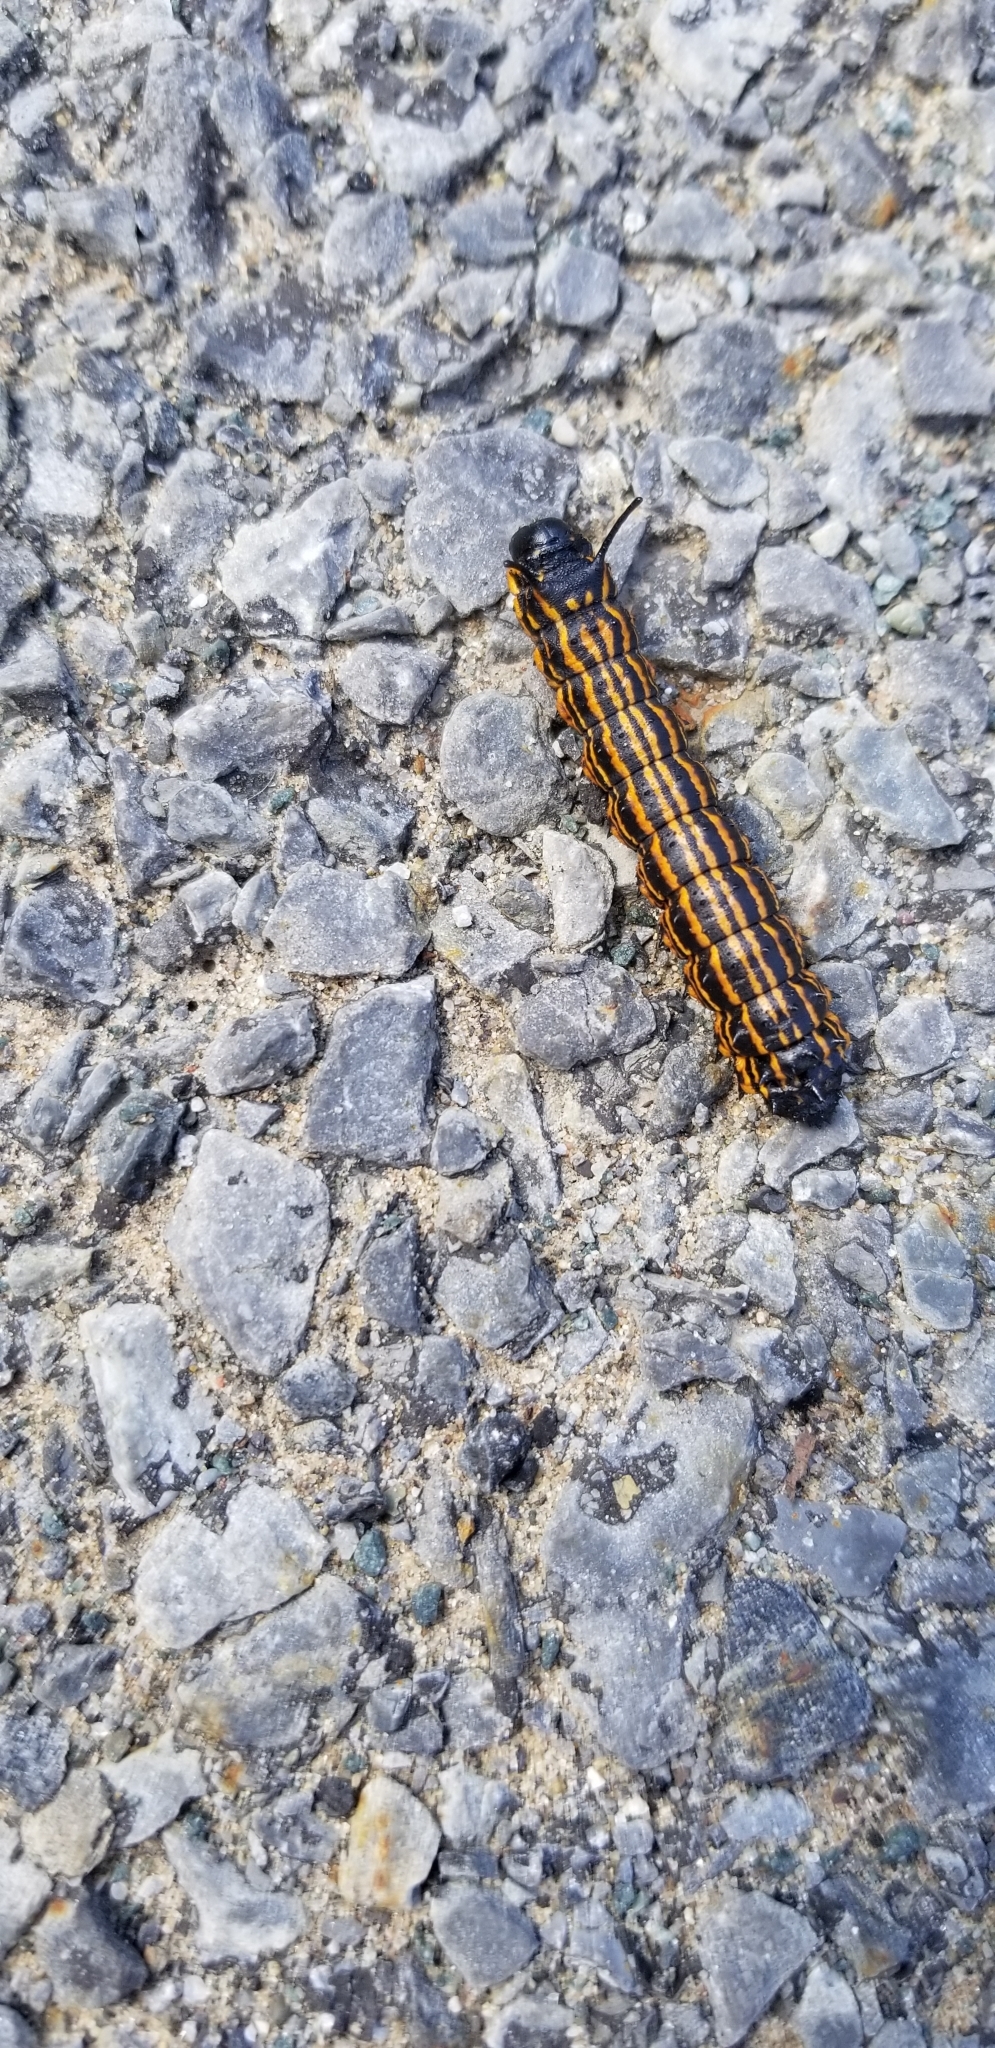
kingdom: Animalia
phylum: Arthropoda
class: Insecta
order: Lepidoptera
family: Saturniidae
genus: Anisota
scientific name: Anisota senatoria
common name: Orange-striped oakworm moth
